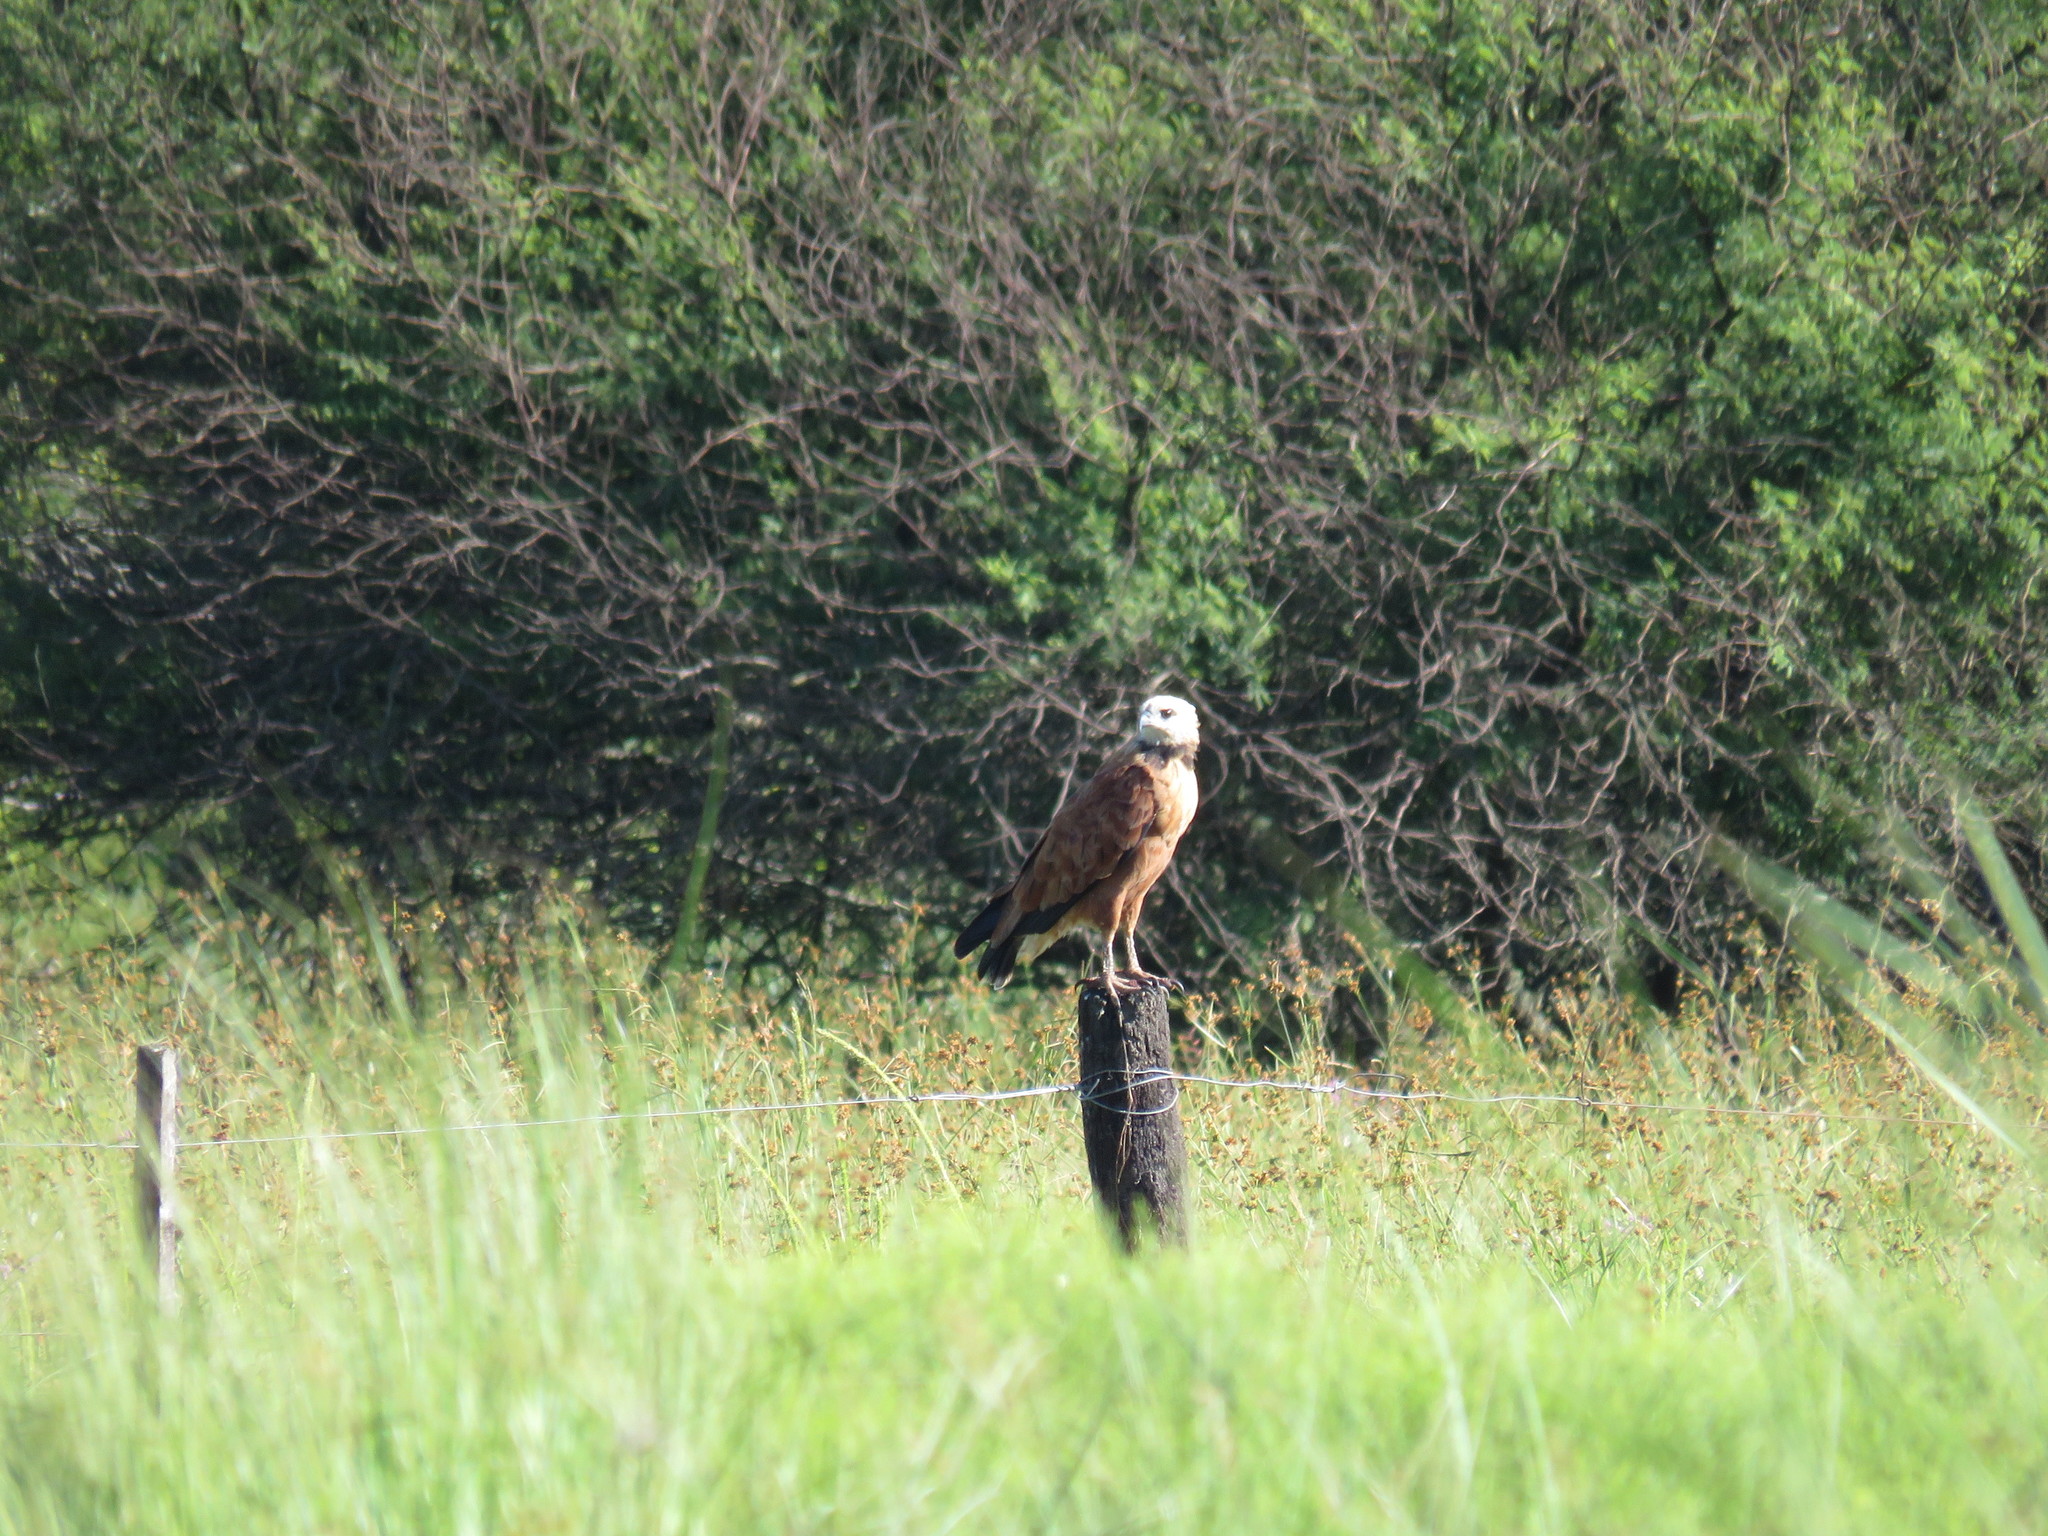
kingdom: Animalia
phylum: Chordata
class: Aves
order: Accipitriformes
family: Accipitridae
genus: Busarellus
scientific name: Busarellus nigricollis
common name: Black-collared hawk
